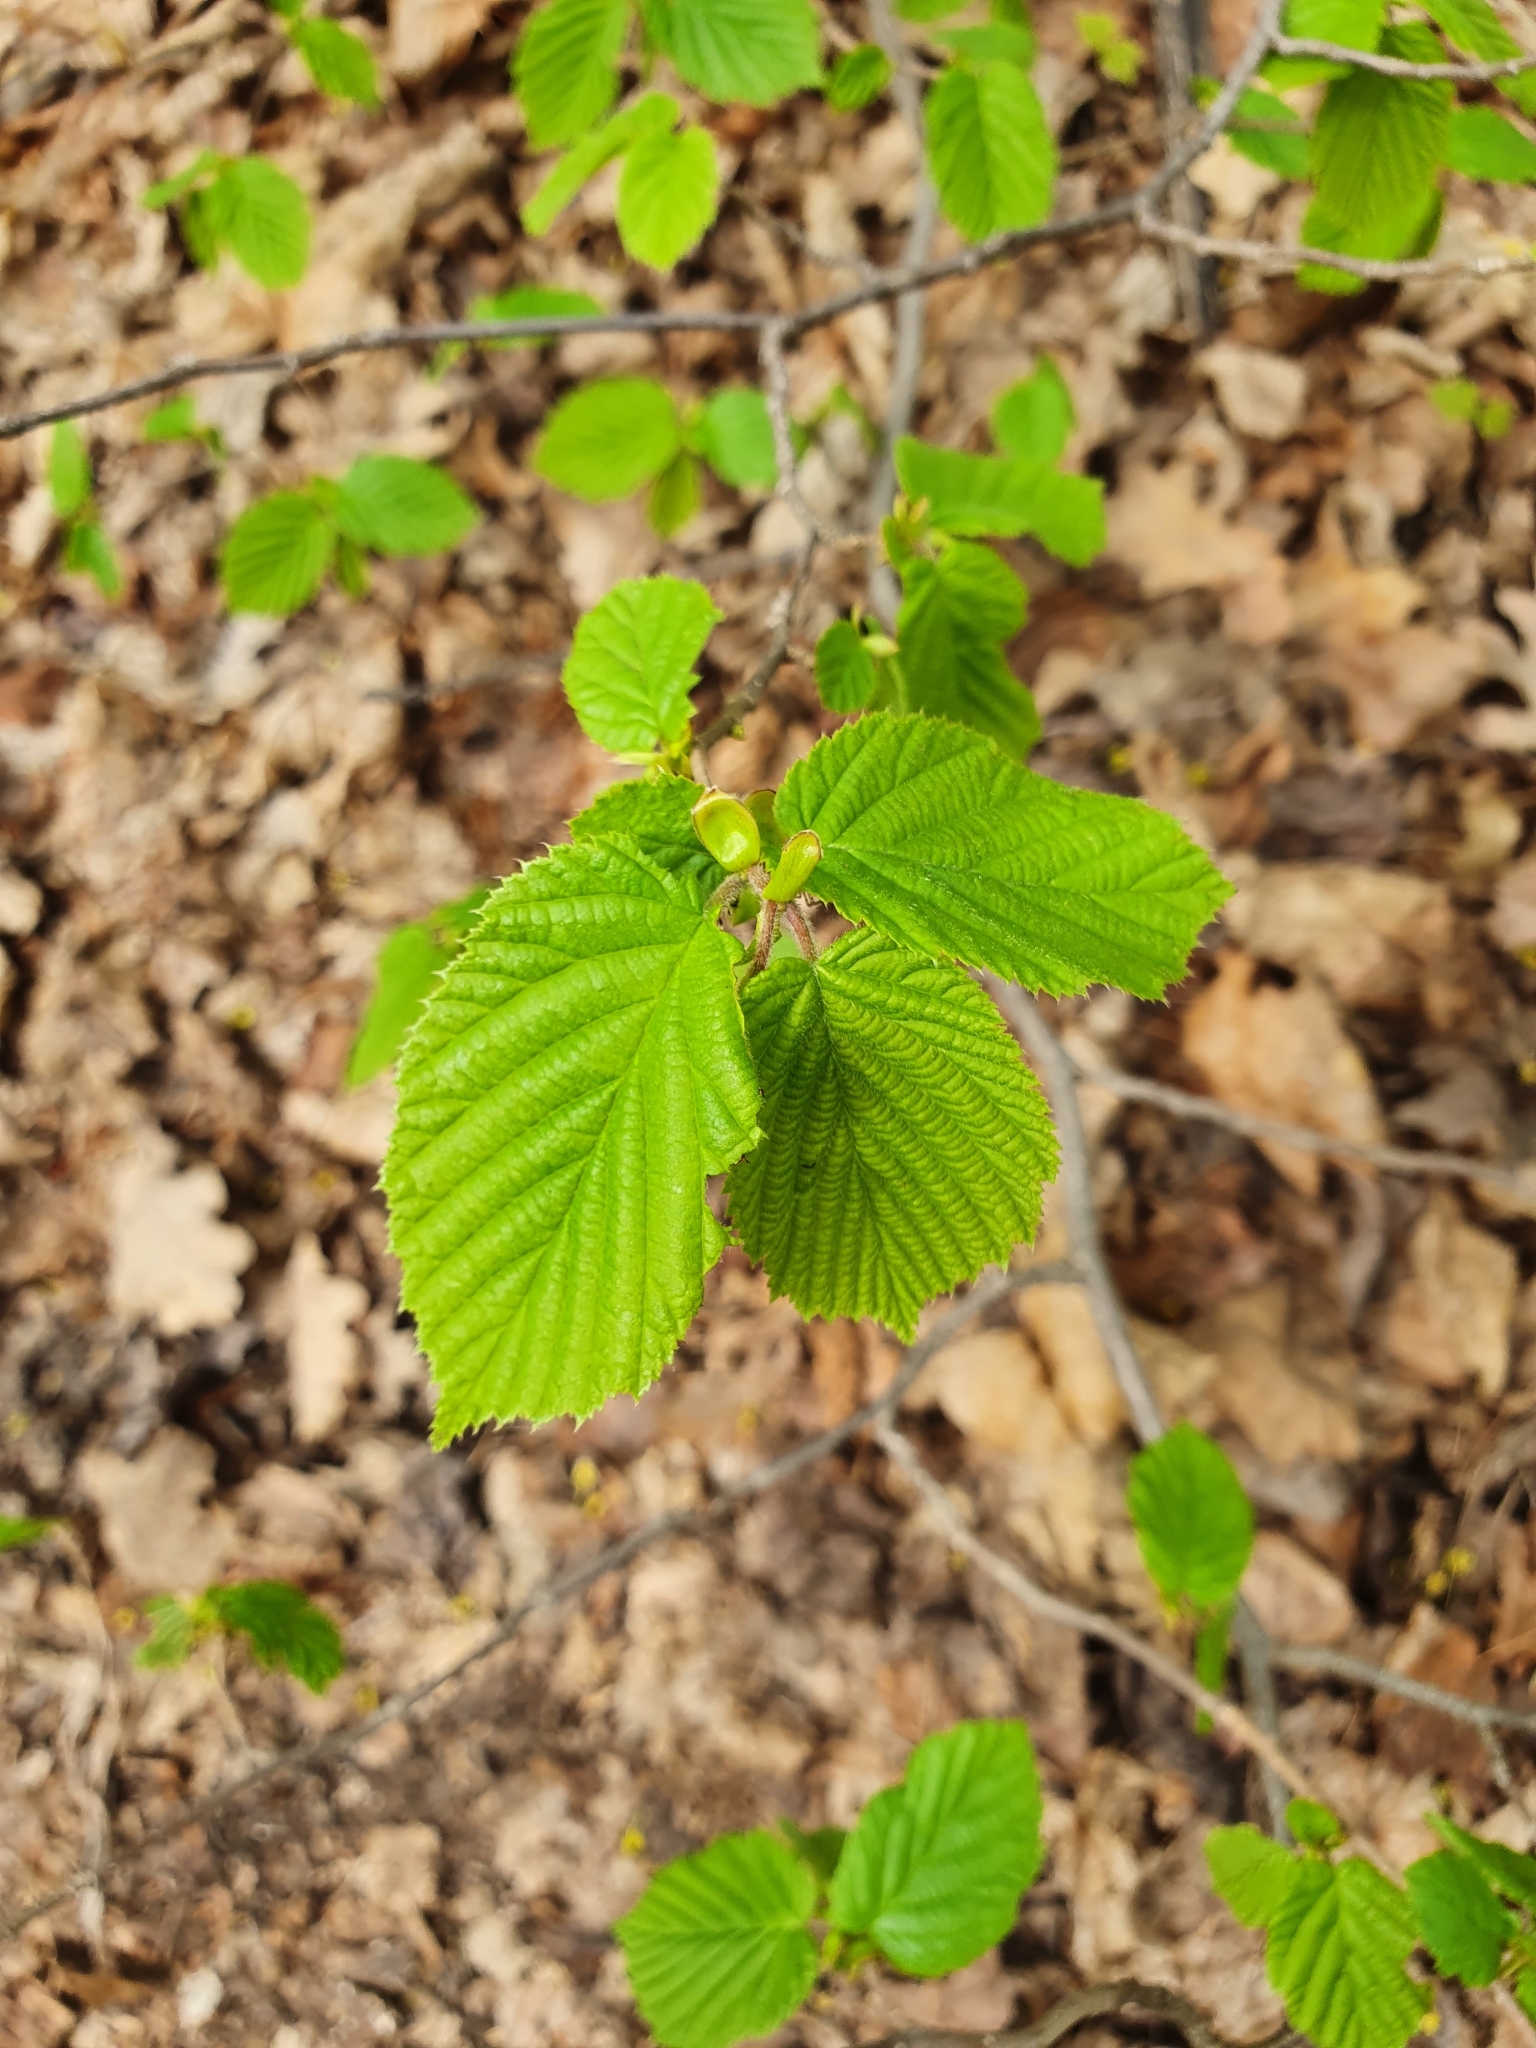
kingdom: Plantae
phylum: Tracheophyta
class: Magnoliopsida
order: Fagales
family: Betulaceae
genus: Corylus
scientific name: Corylus avellana
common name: European hazel
